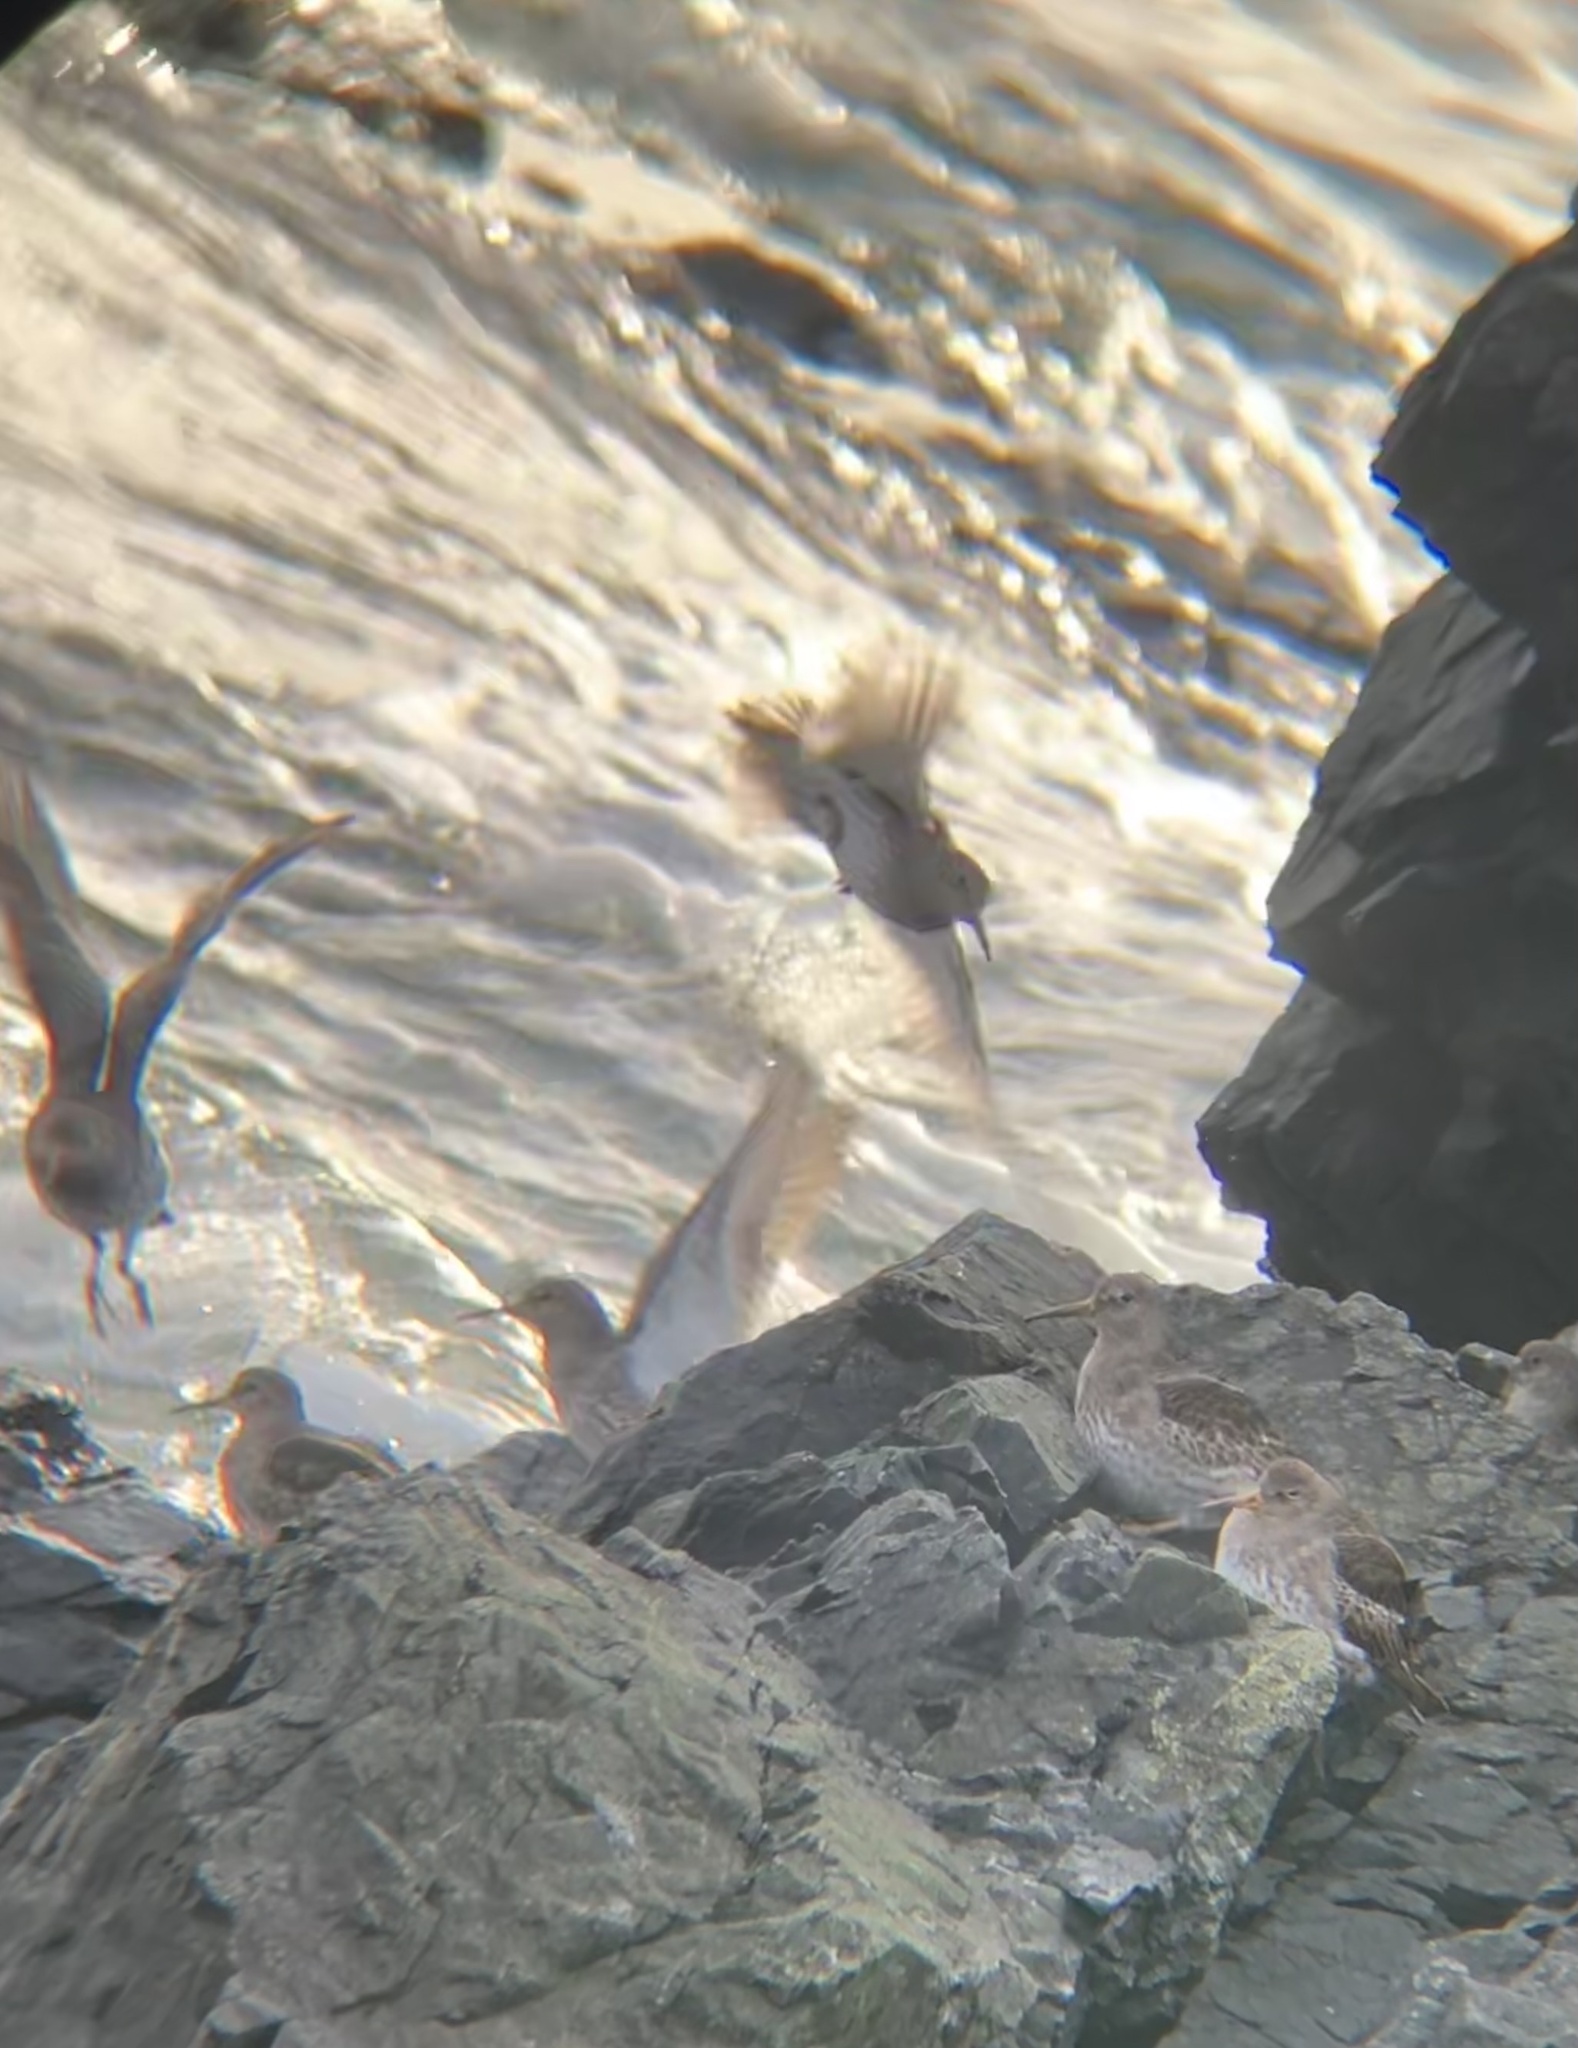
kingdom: Animalia
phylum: Chordata
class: Aves
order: Charadriiformes
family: Scolopacidae
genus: Calidris
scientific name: Calidris maritima
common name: Purple sandpiper
